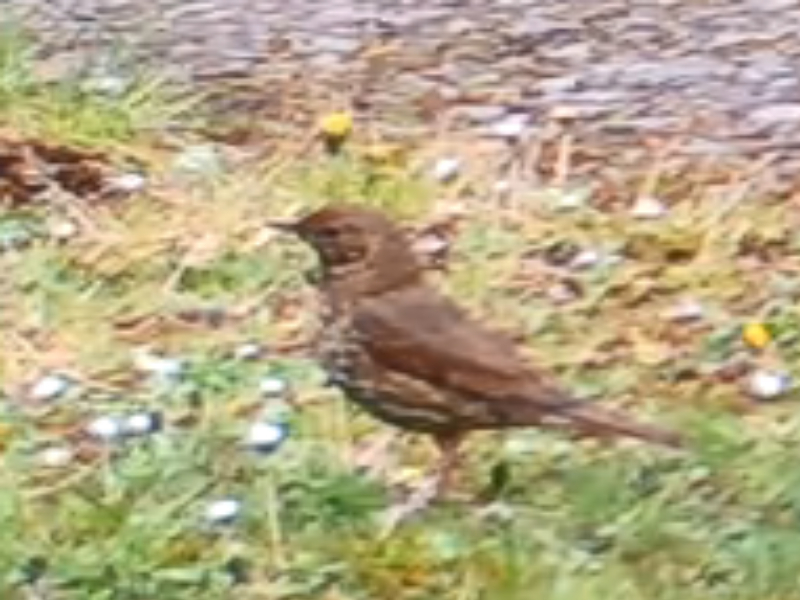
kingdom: Animalia
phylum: Chordata
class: Aves
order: Passeriformes
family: Turdidae
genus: Turdus
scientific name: Turdus philomelos
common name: Song thrush
